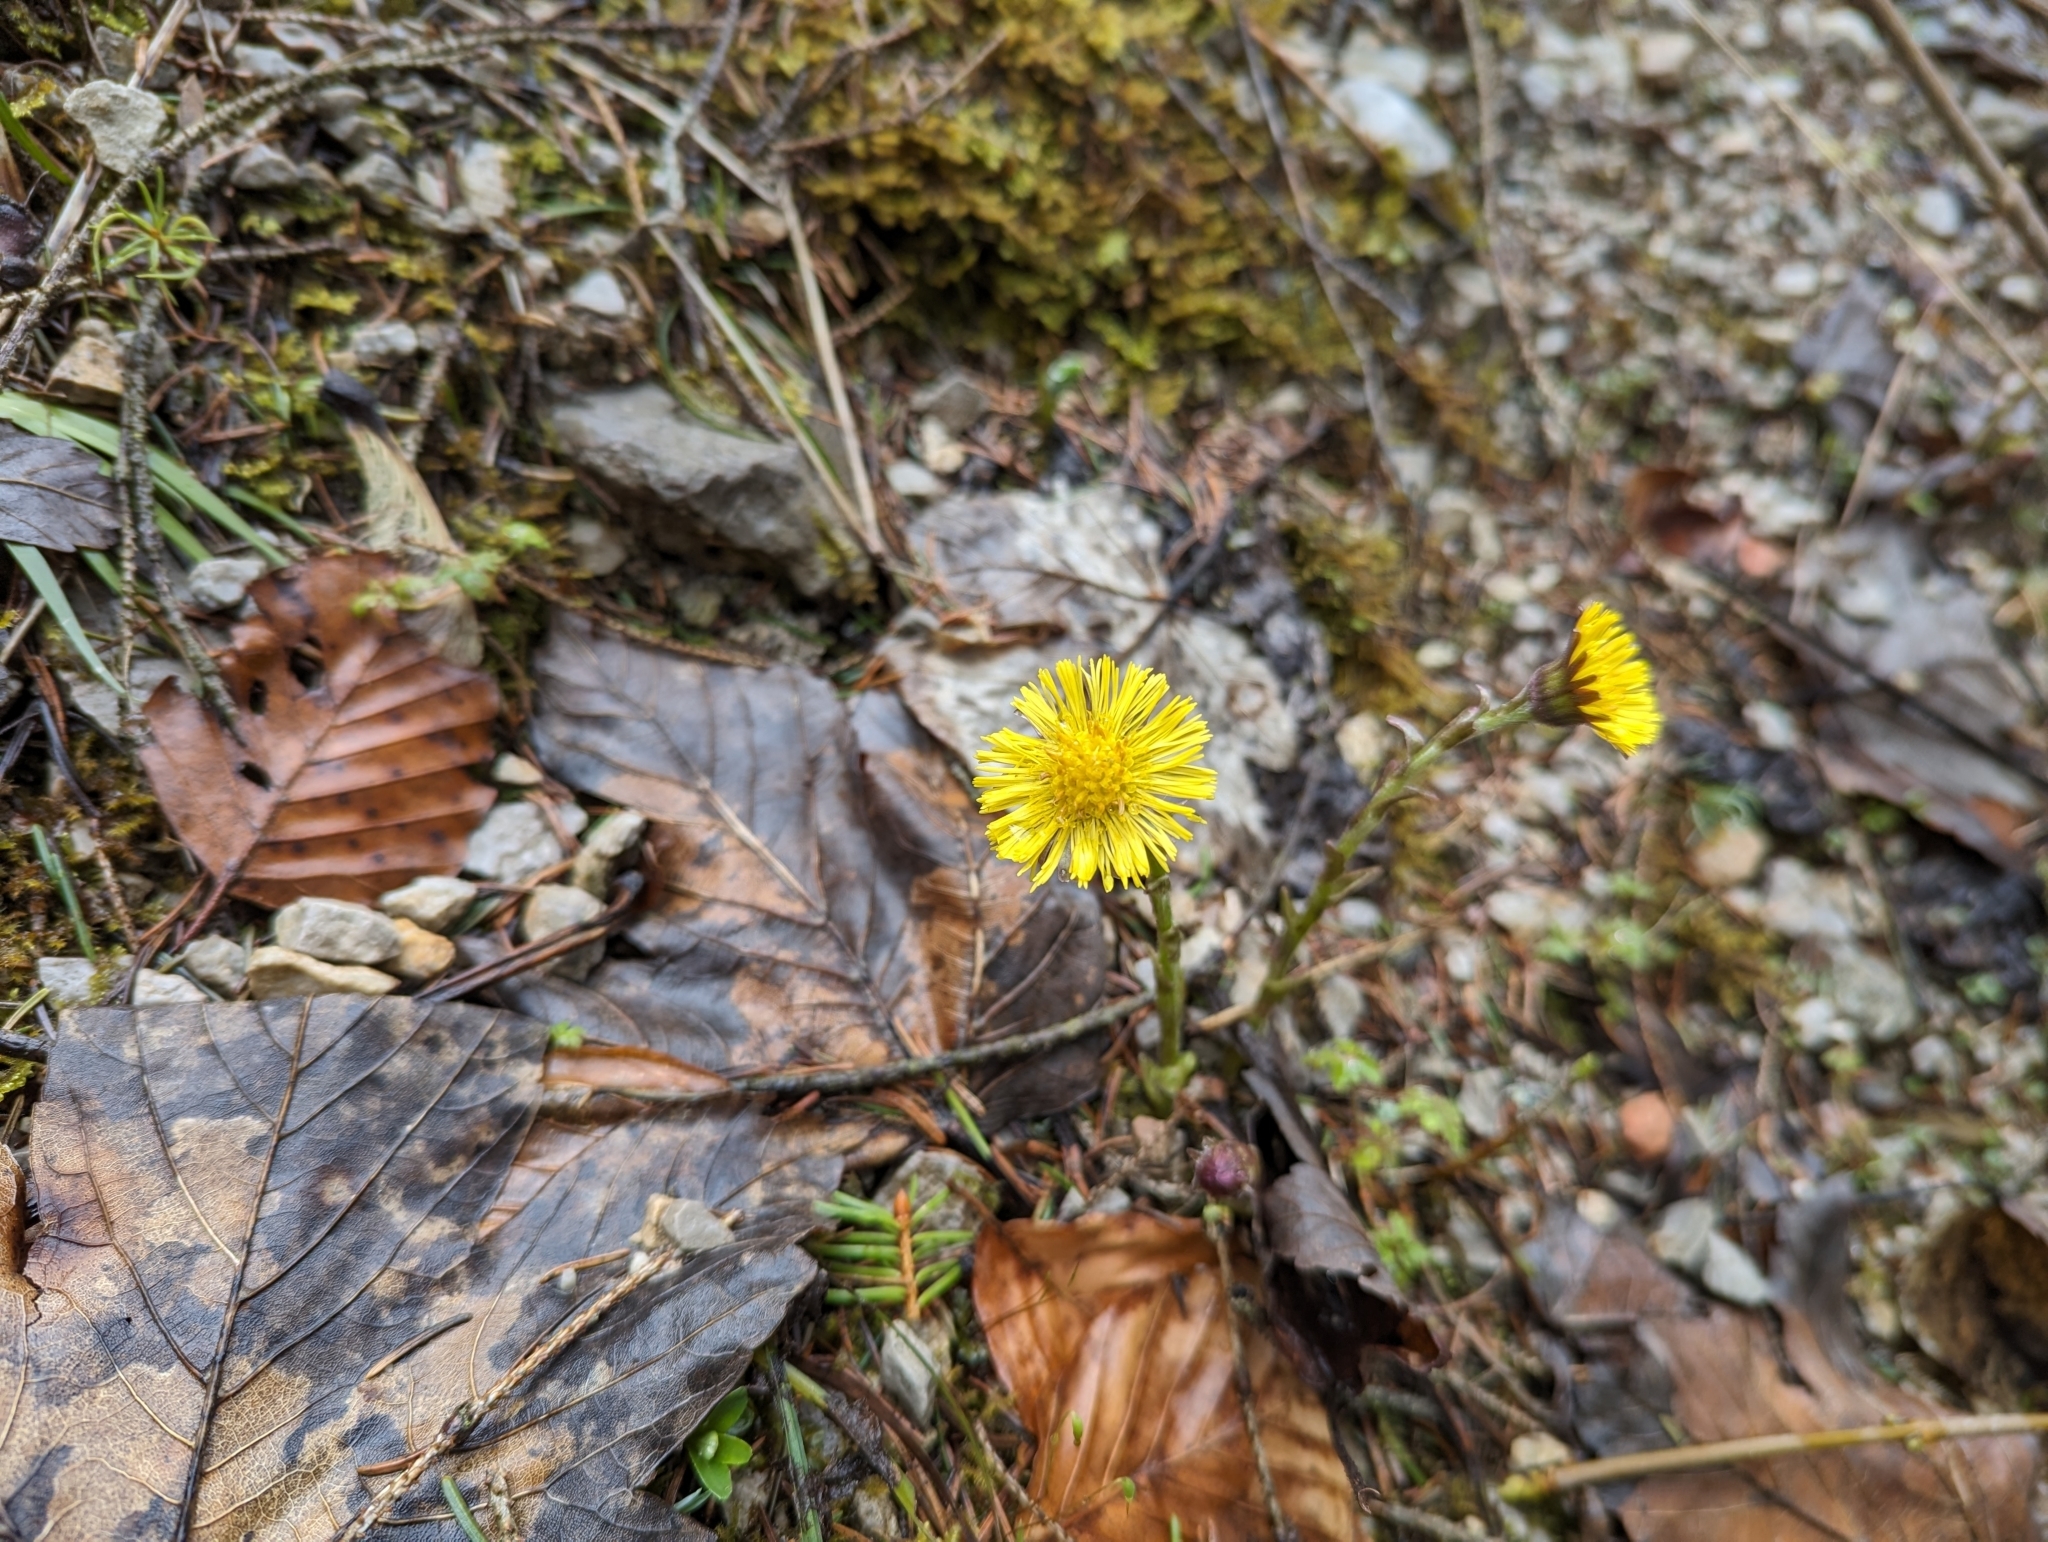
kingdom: Plantae
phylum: Tracheophyta
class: Magnoliopsida
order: Asterales
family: Asteraceae
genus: Tussilago
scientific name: Tussilago farfara
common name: Coltsfoot
